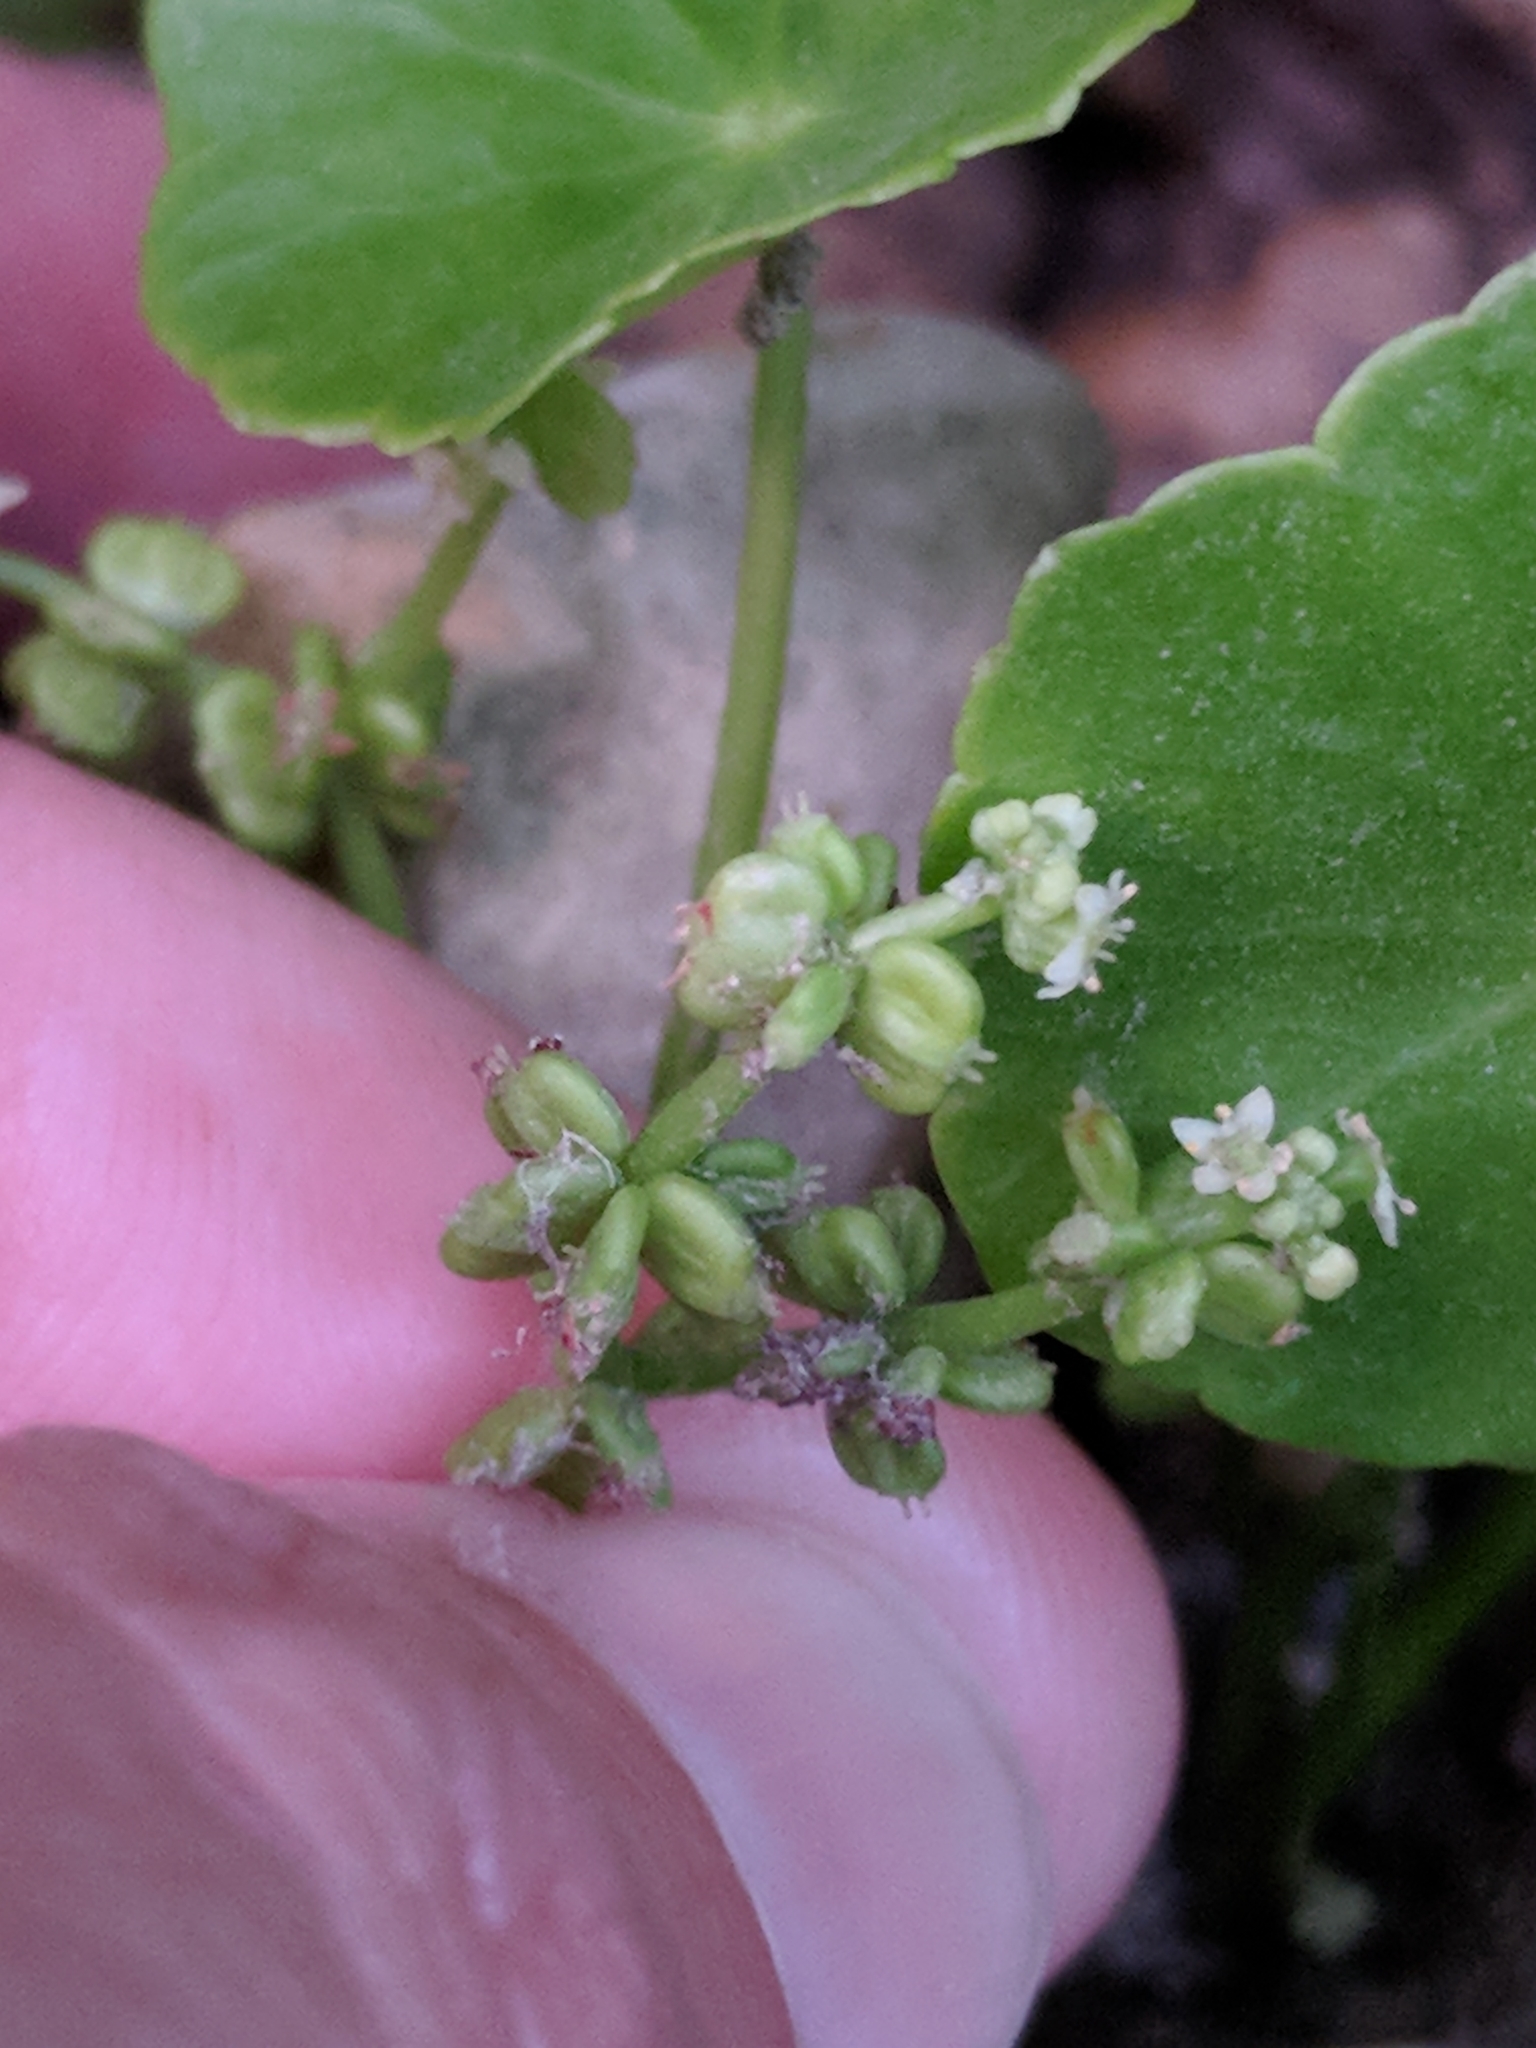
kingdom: Plantae
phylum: Tracheophyta
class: Magnoliopsida
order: Apiales
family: Araliaceae
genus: Hydrocotyle
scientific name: Hydrocotyle verticillata
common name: Whorled marshpennywort
